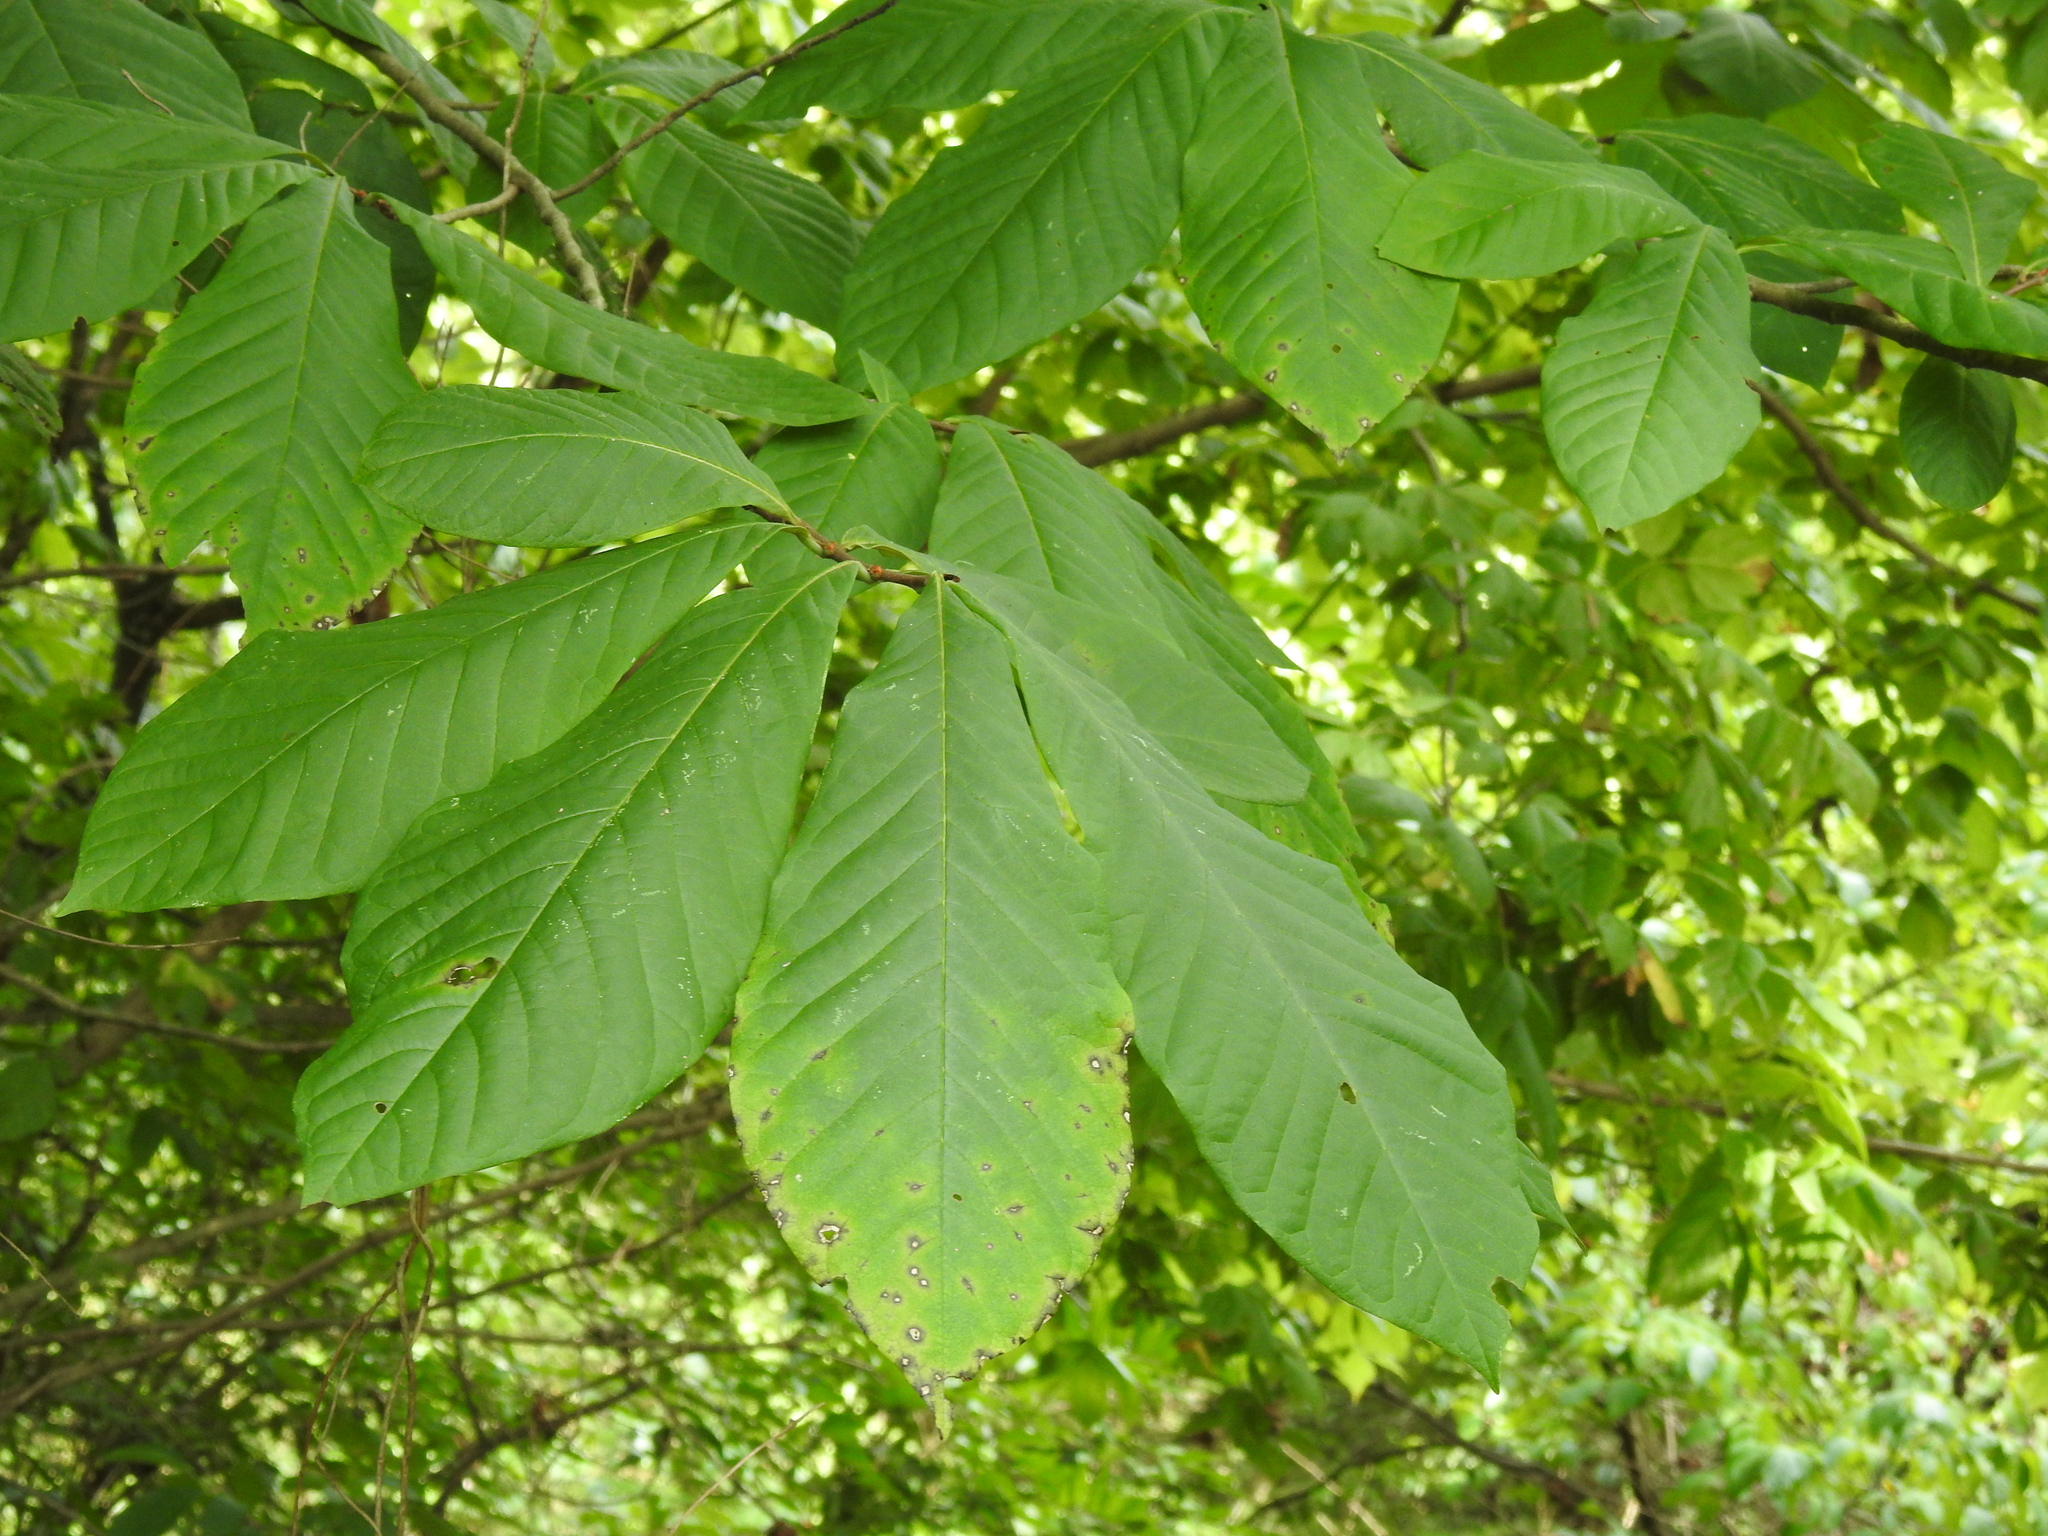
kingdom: Plantae
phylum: Tracheophyta
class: Magnoliopsida
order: Magnoliales
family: Annonaceae
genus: Asimina
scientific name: Asimina triloba
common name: Dog-banana
